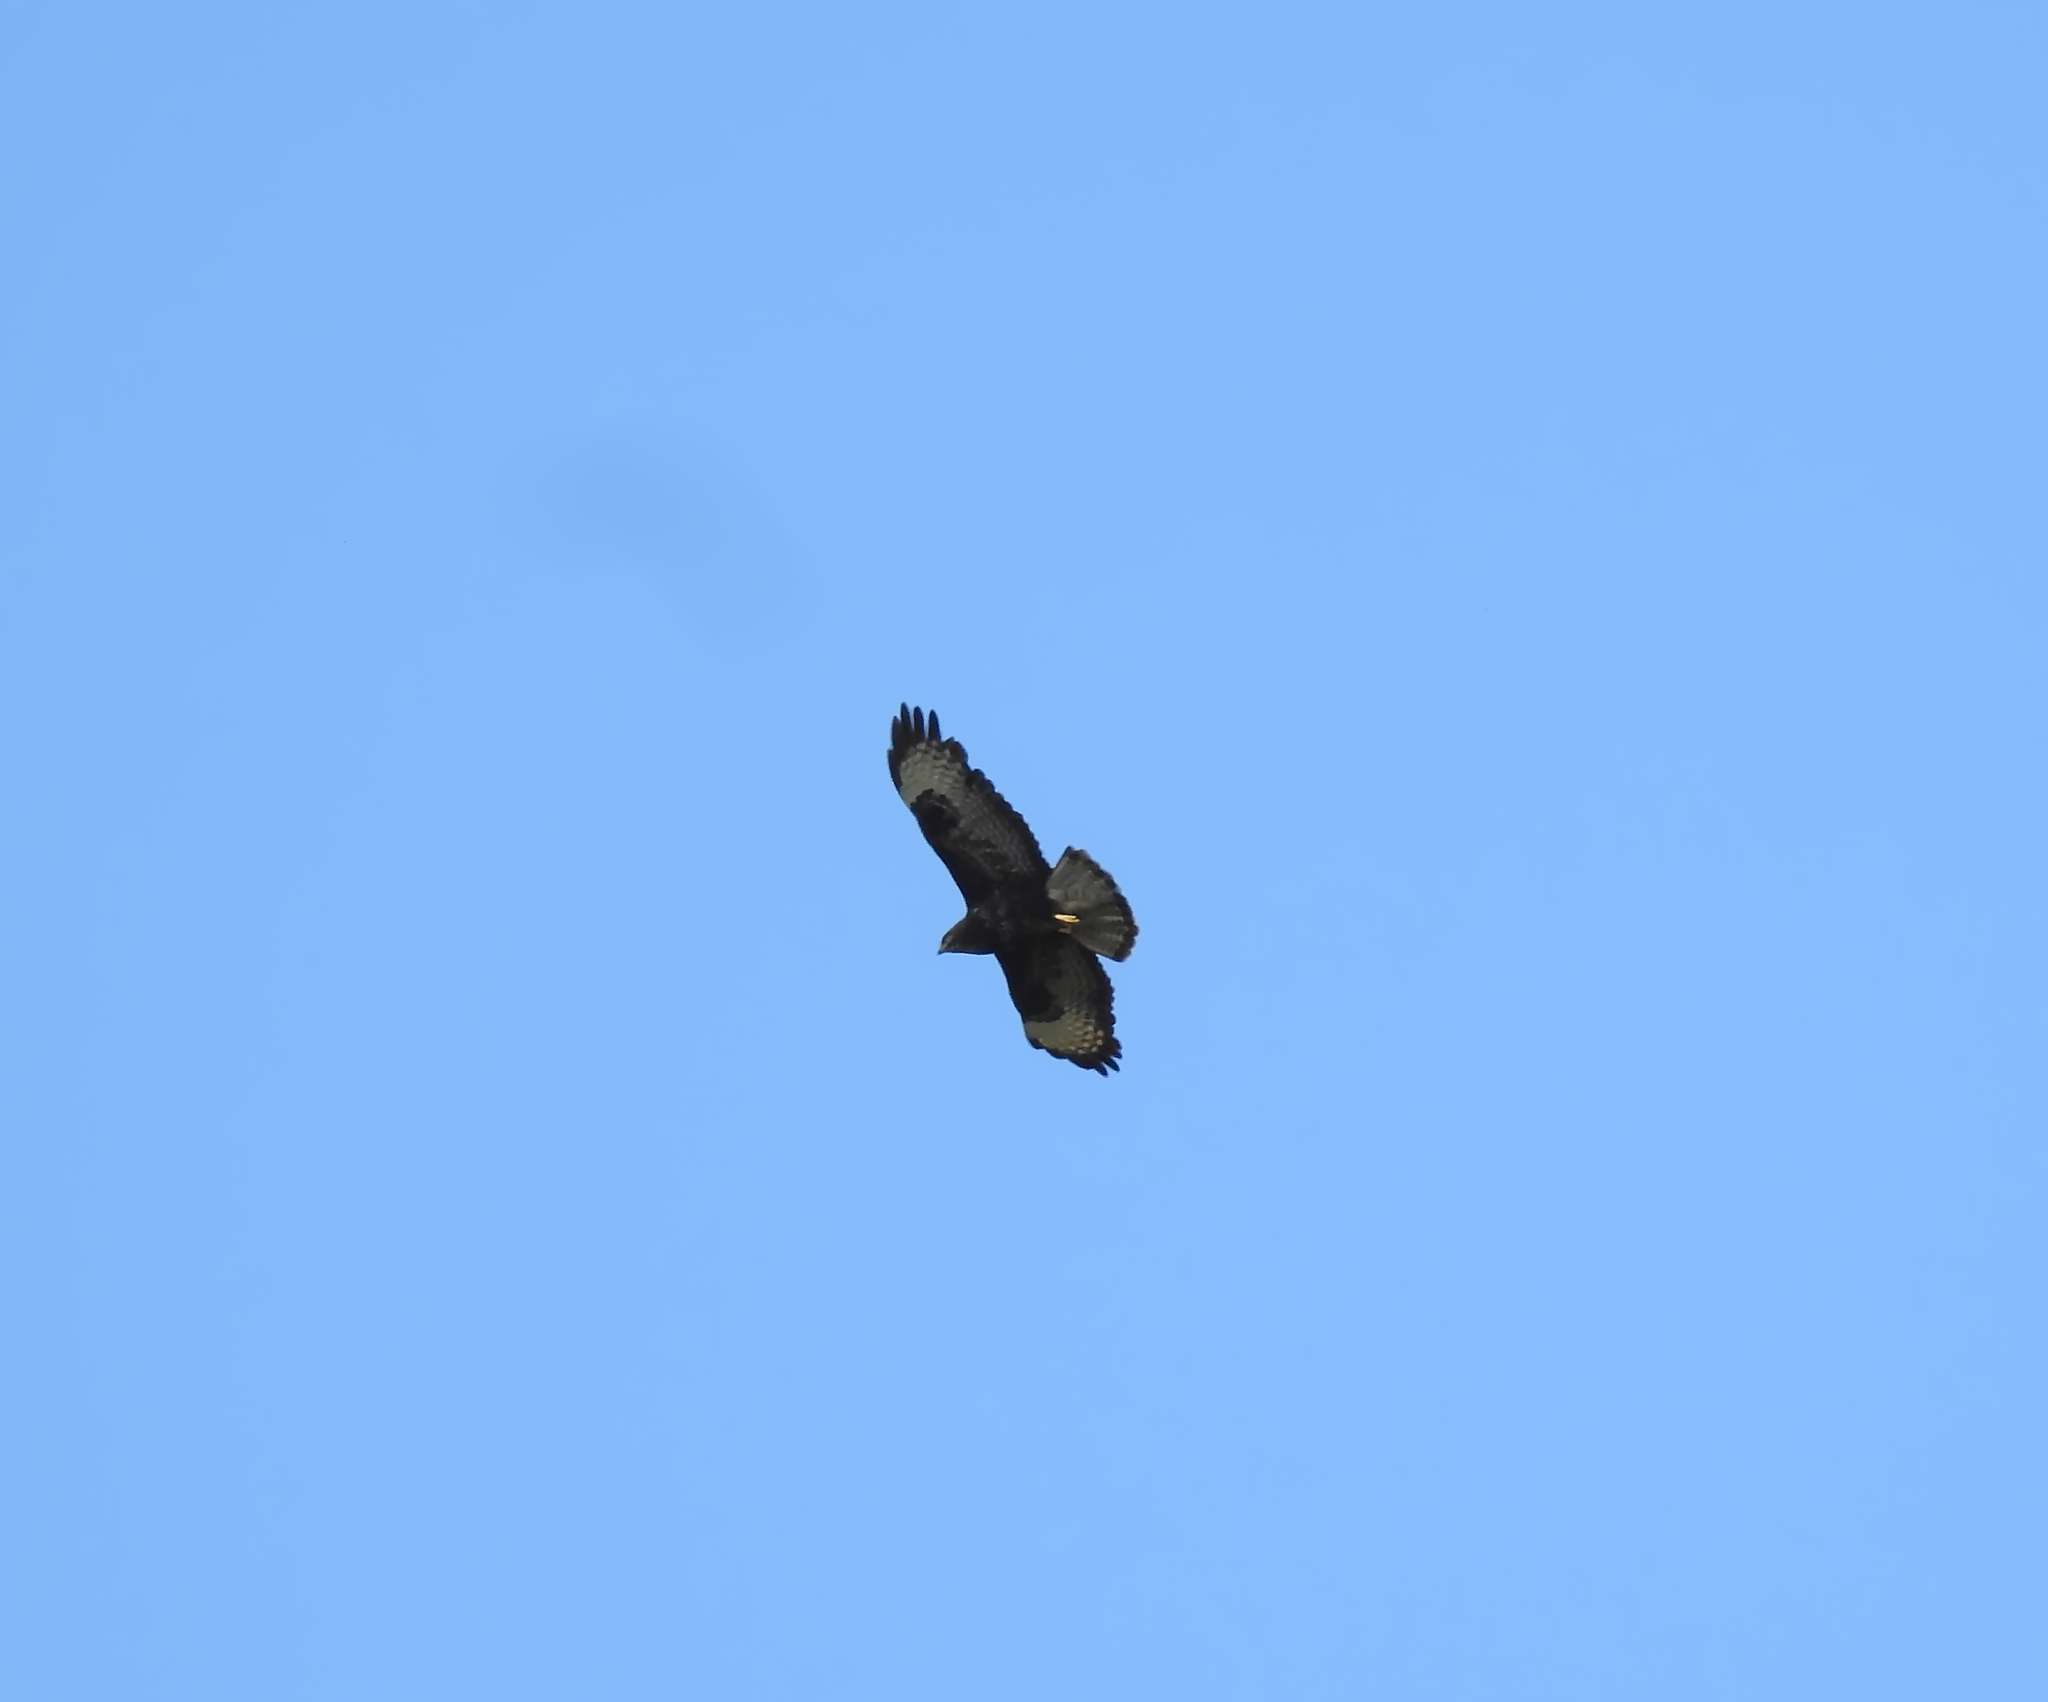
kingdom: Animalia
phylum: Chordata
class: Aves
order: Accipitriformes
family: Accipitridae
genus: Buteo
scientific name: Buteo buteo
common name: Common buzzard
